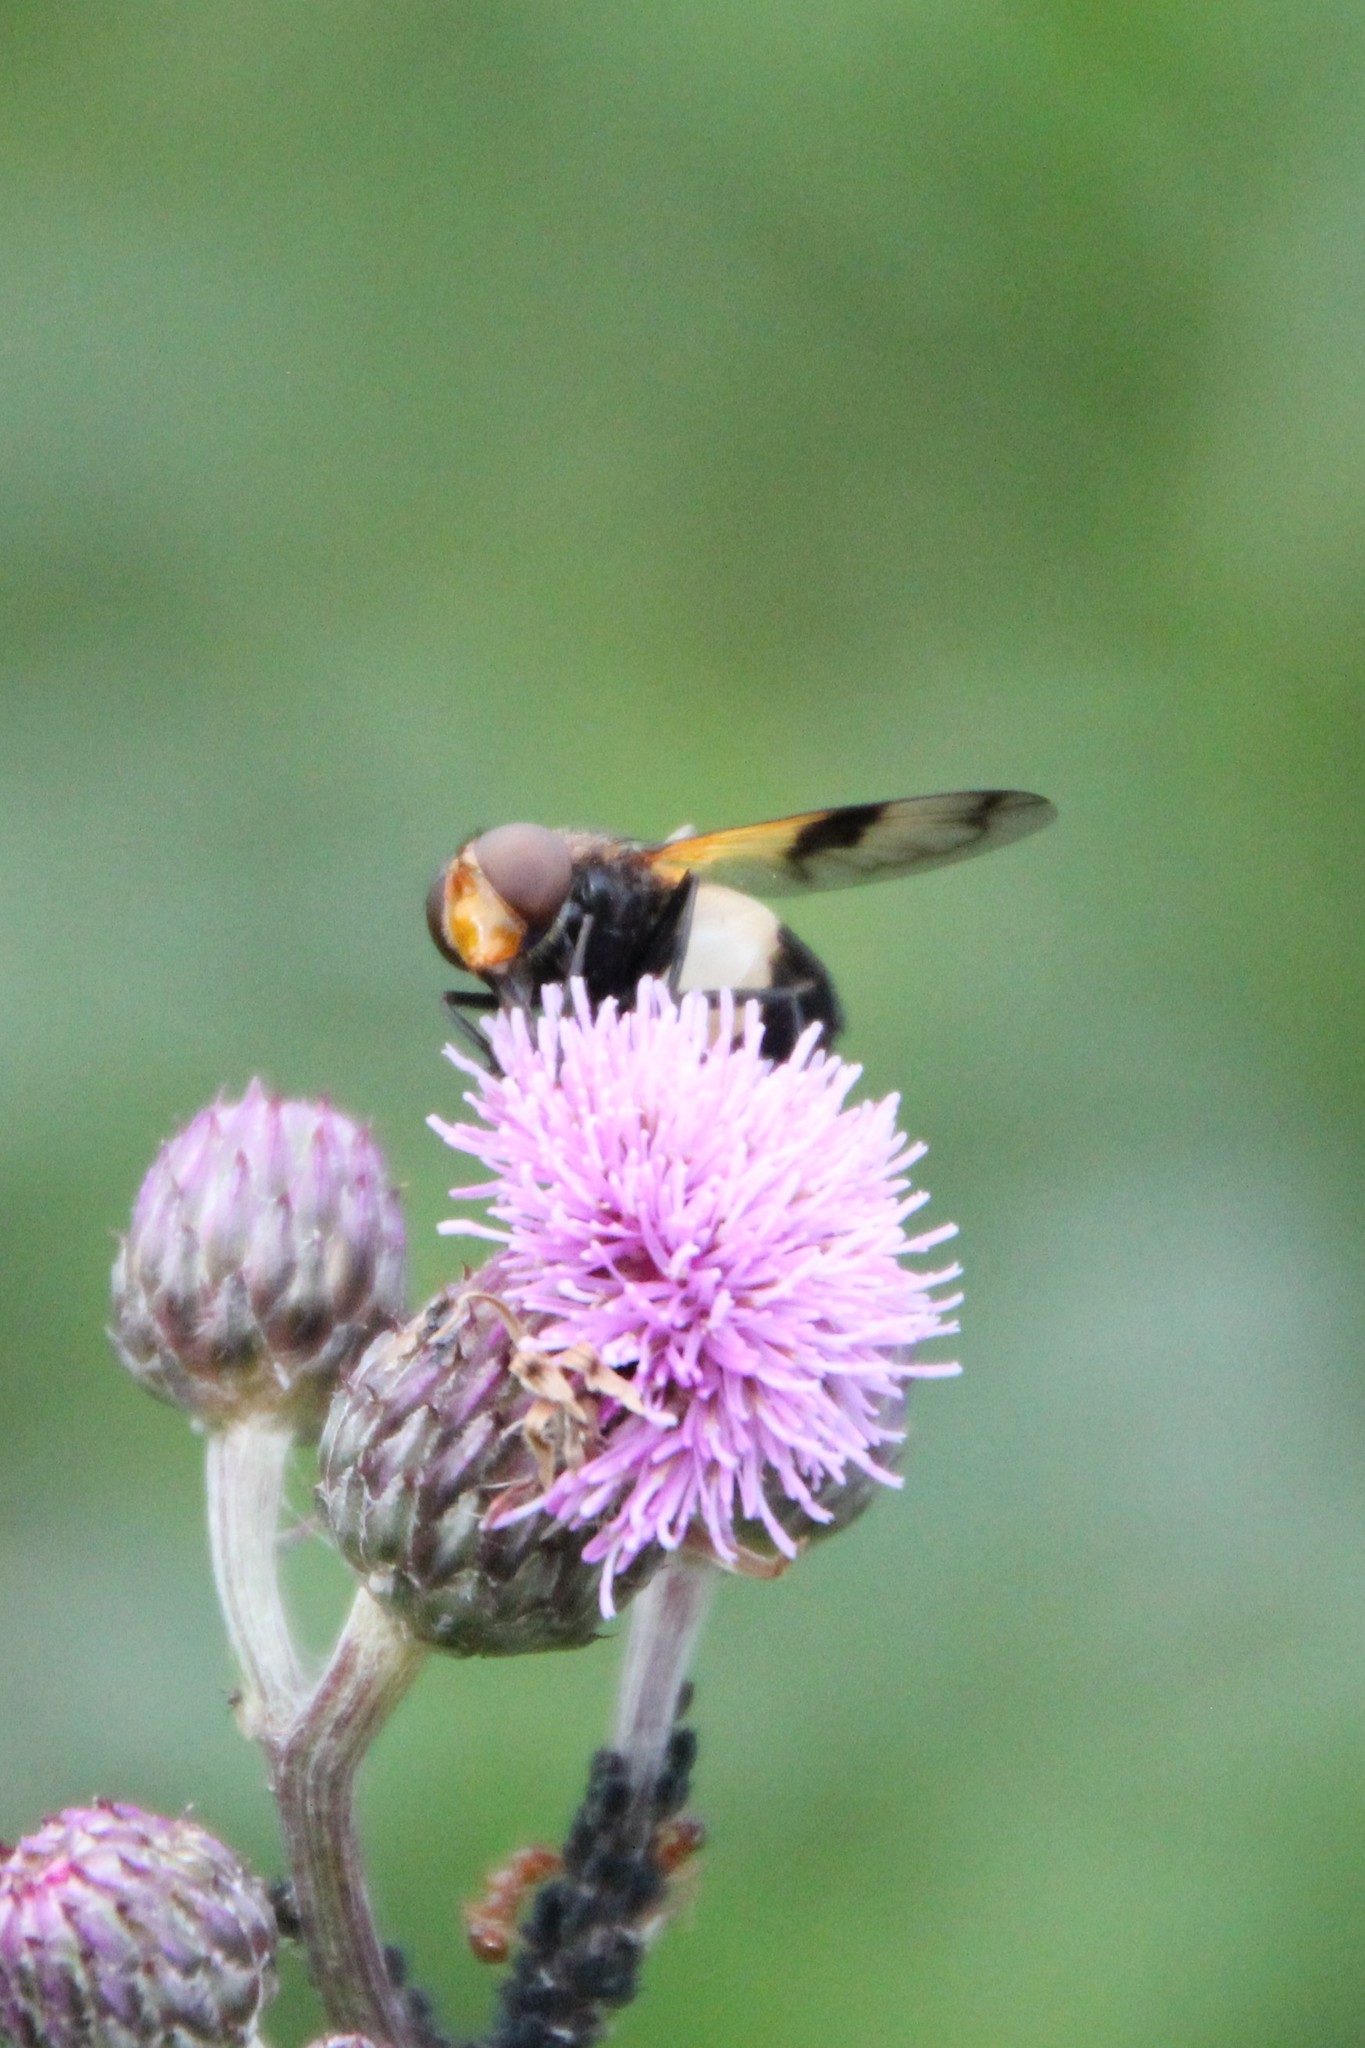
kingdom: Animalia
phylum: Arthropoda
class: Insecta
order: Diptera
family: Syrphidae
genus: Volucella
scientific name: Volucella pellucens
